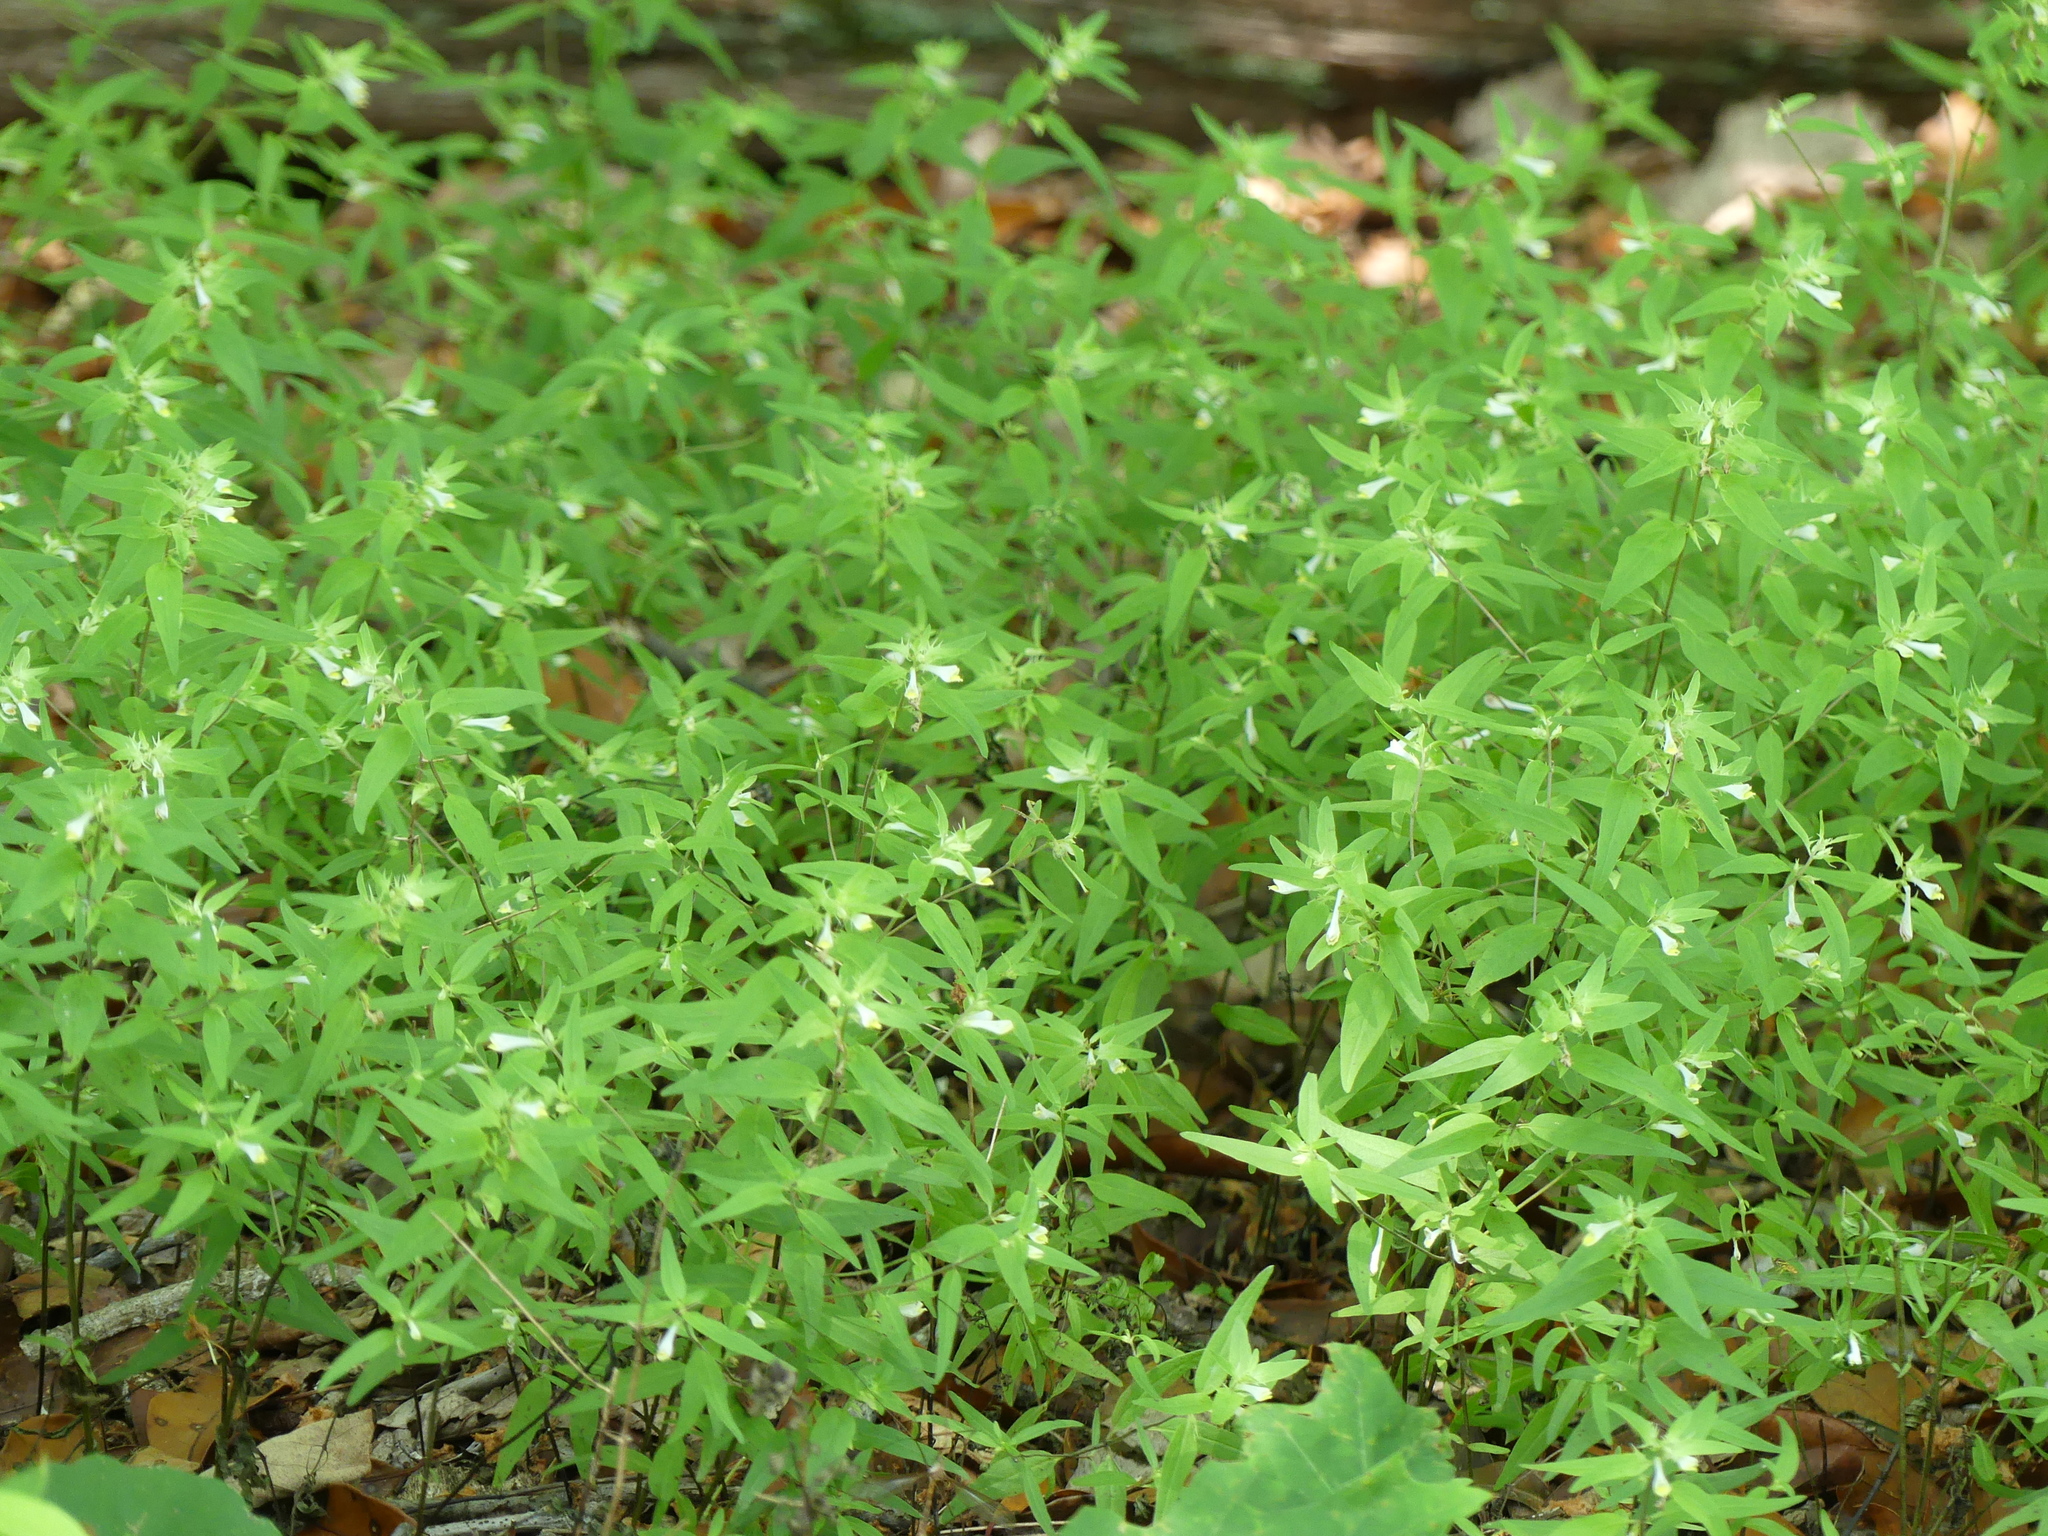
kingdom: Plantae
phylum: Tracheophyta
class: Magnoliopsida
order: Lamiales
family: Orobanchaceae
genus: Melampyrum
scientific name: Melampyrum lineare
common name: American cow-wheat
